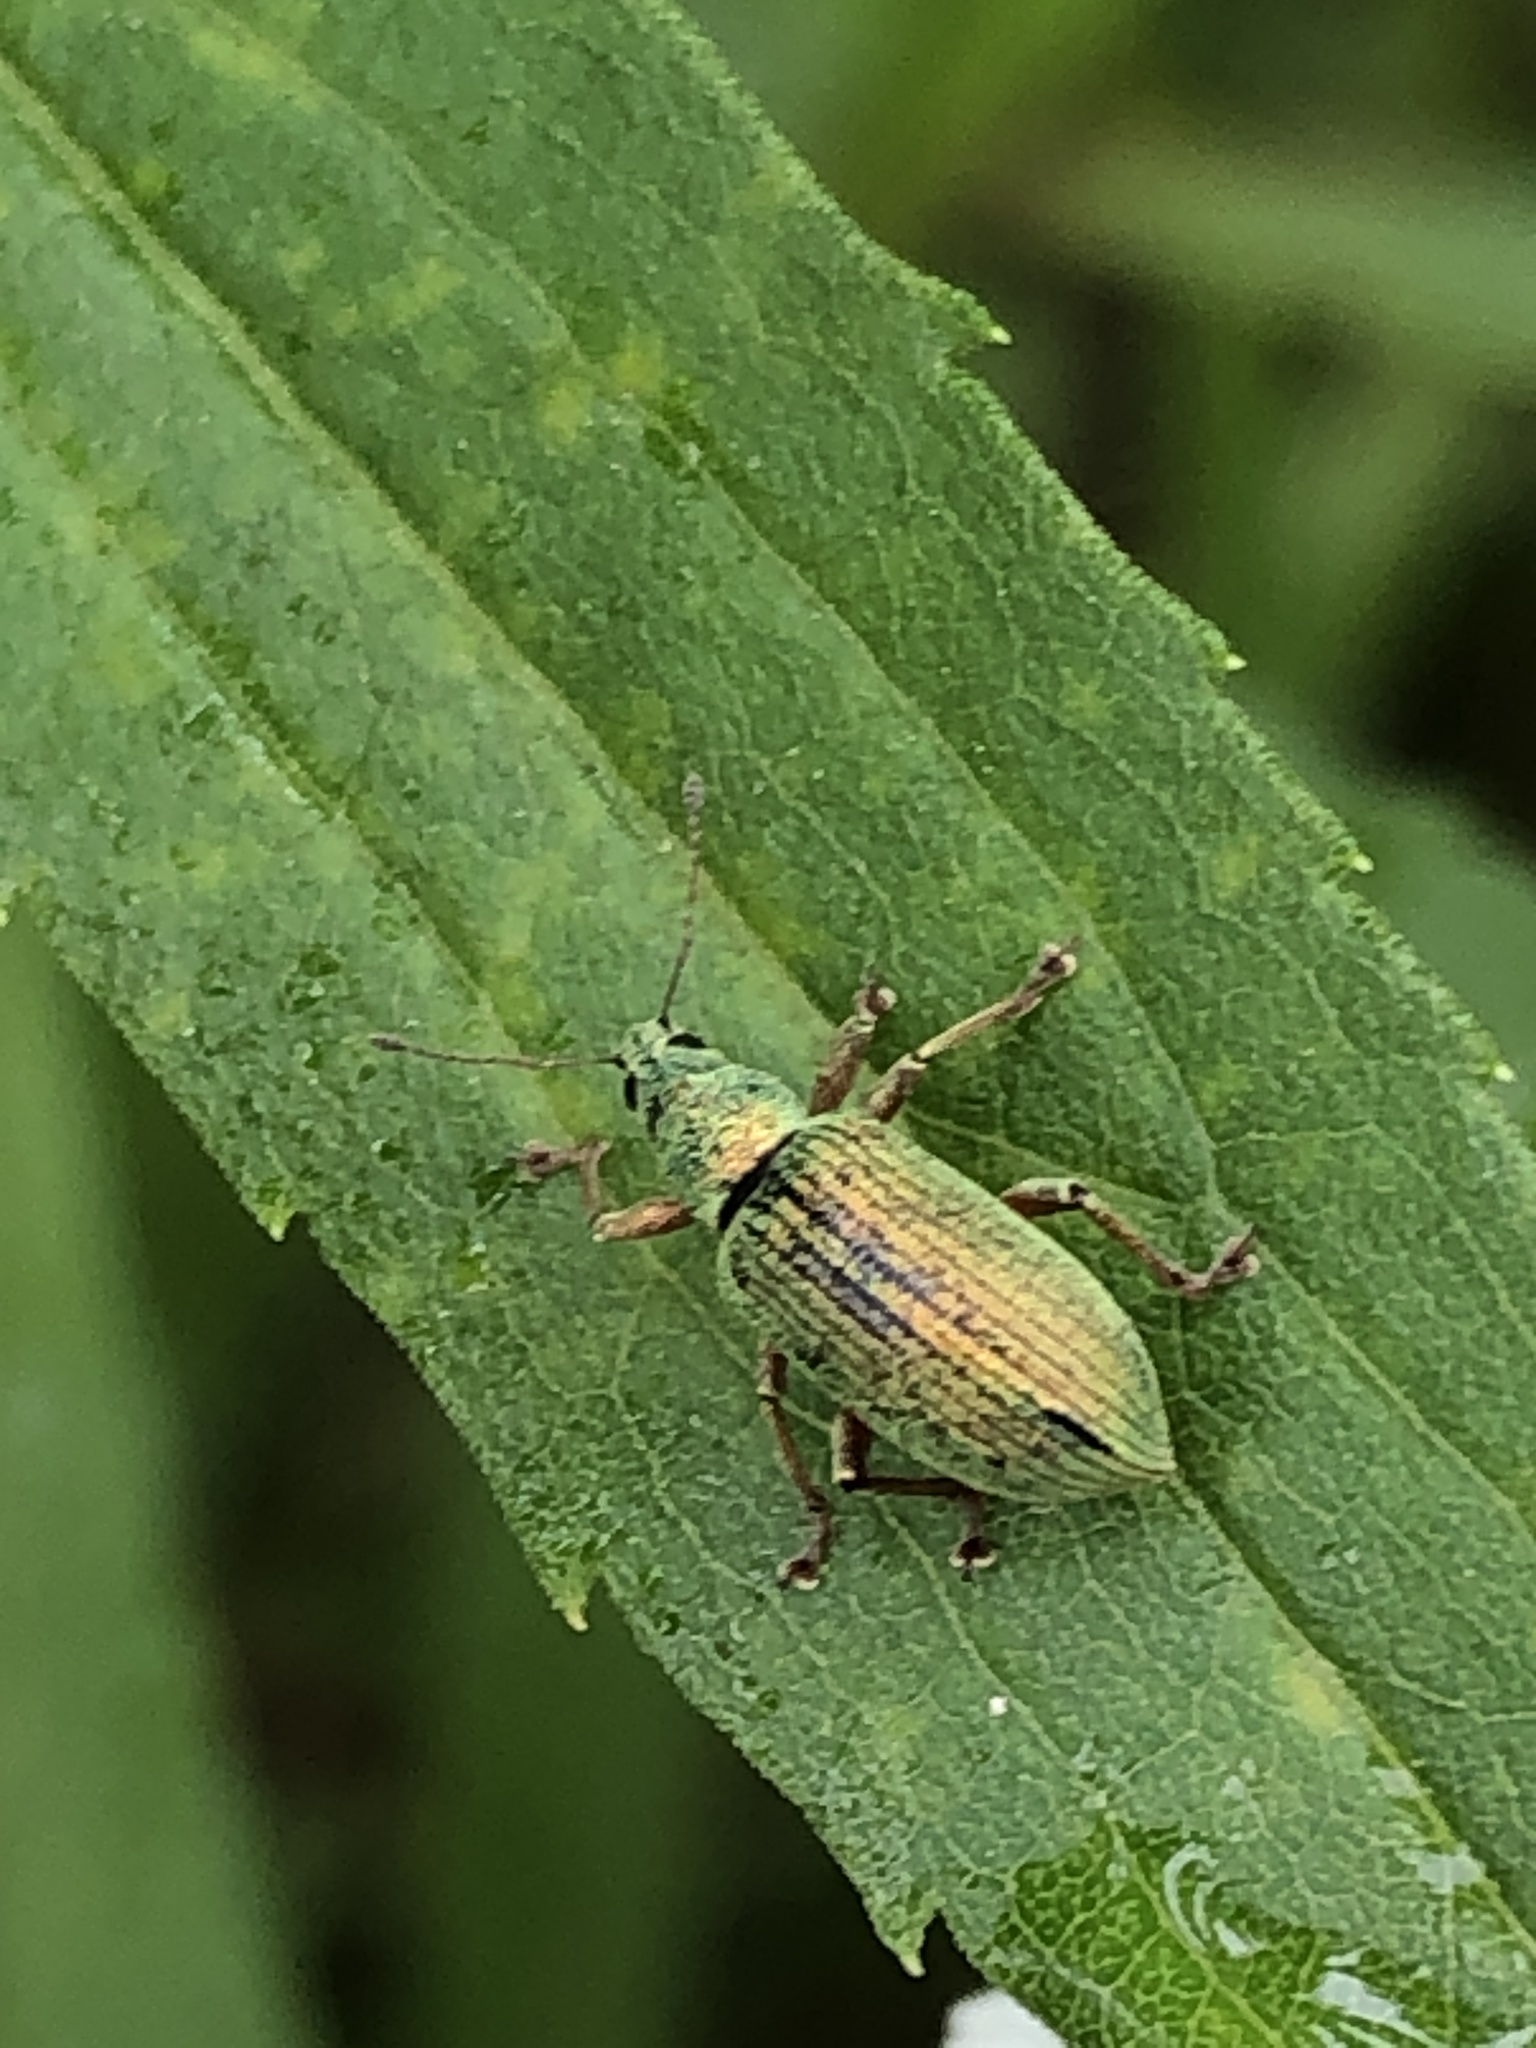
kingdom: Animalia
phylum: Arthropoda
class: Insecta
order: Coleoptera
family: Curculionidae
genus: Polydrusus
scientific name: Polydrusus formosus
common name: Weevil
